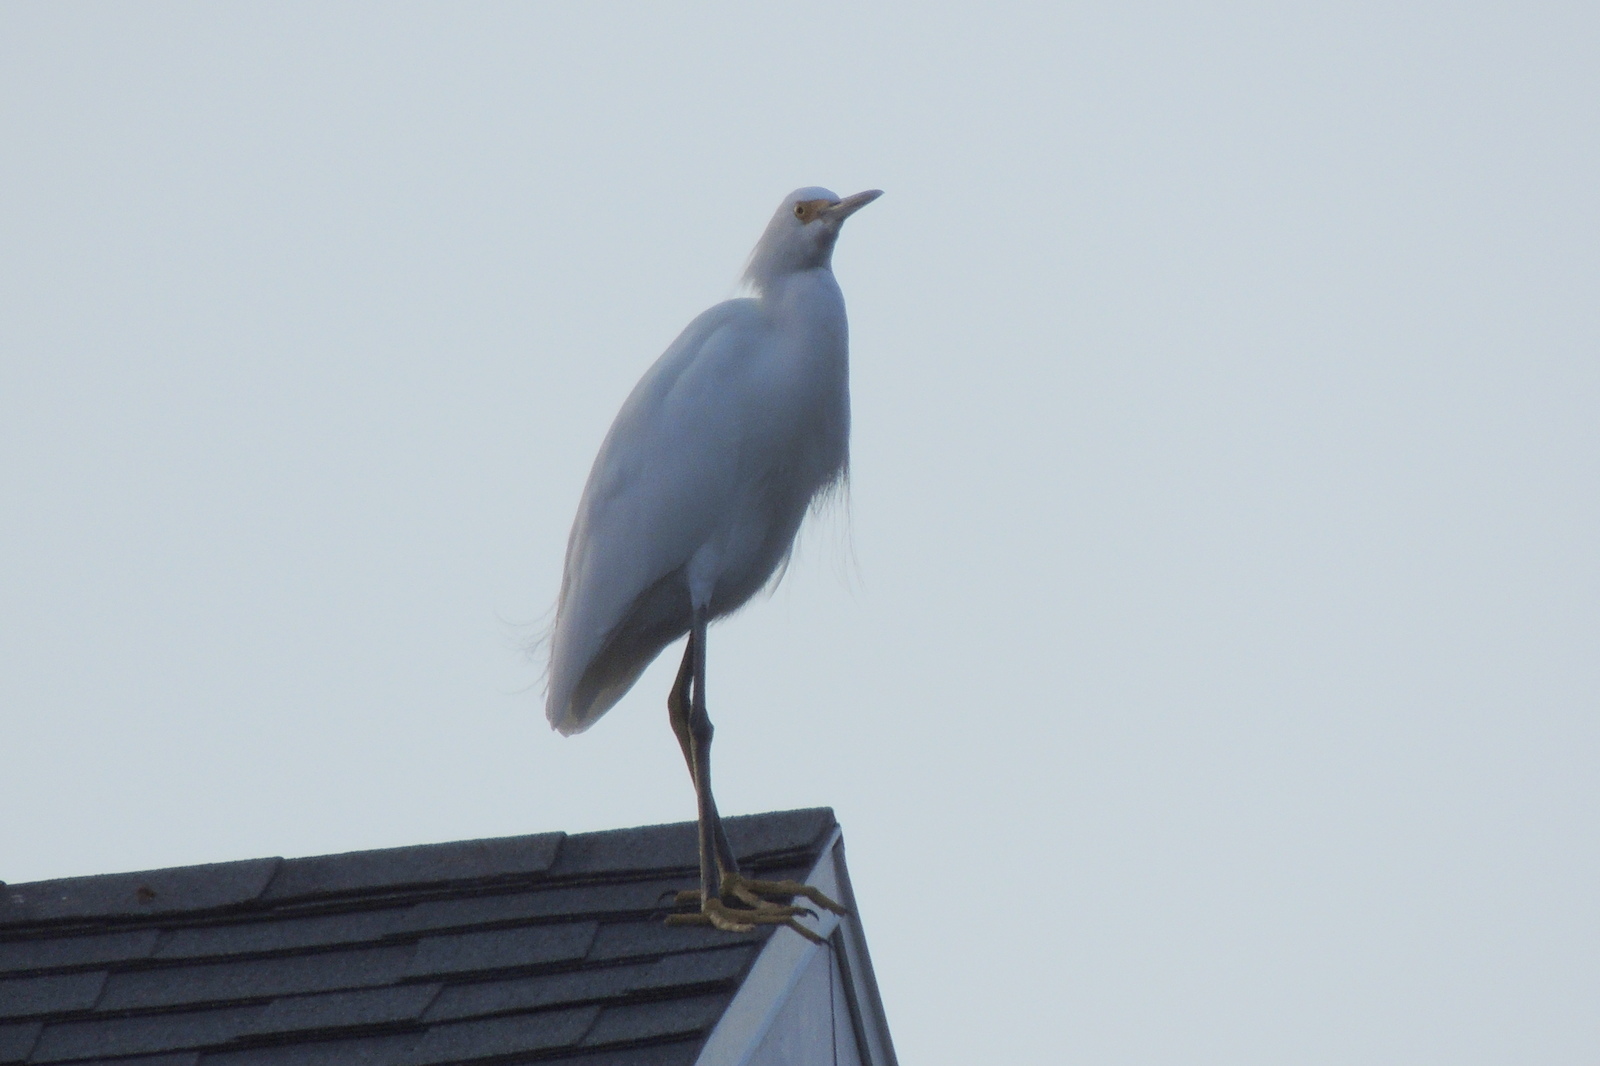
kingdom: Animalia
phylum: Chordata
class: Aves
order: Pelecaniformes
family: Ardeidae
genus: Egretta
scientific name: Egretta thula
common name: Snowy egret
